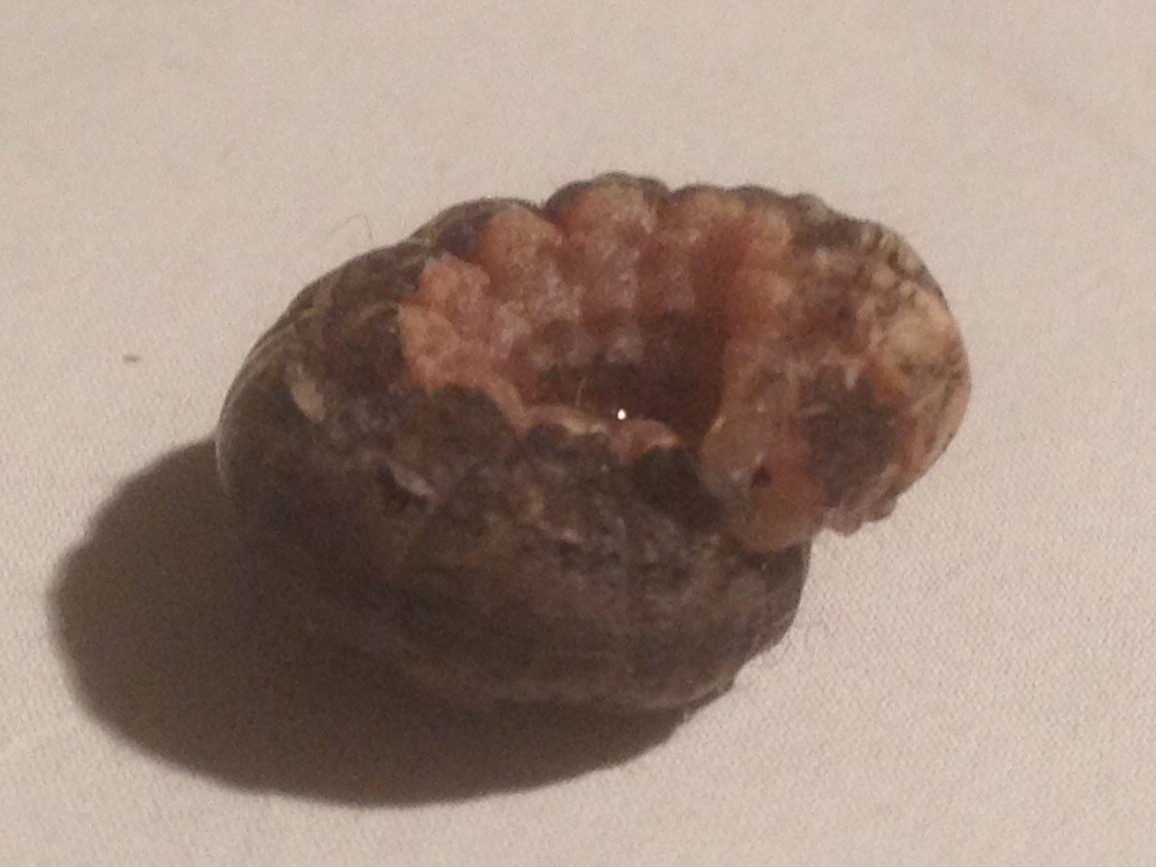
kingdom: Animalia
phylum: Arthropoda
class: Insecta
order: Lepidoptera
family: Noctuidae
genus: Noctua
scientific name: Noctua pronuba
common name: Large yellow underwing
